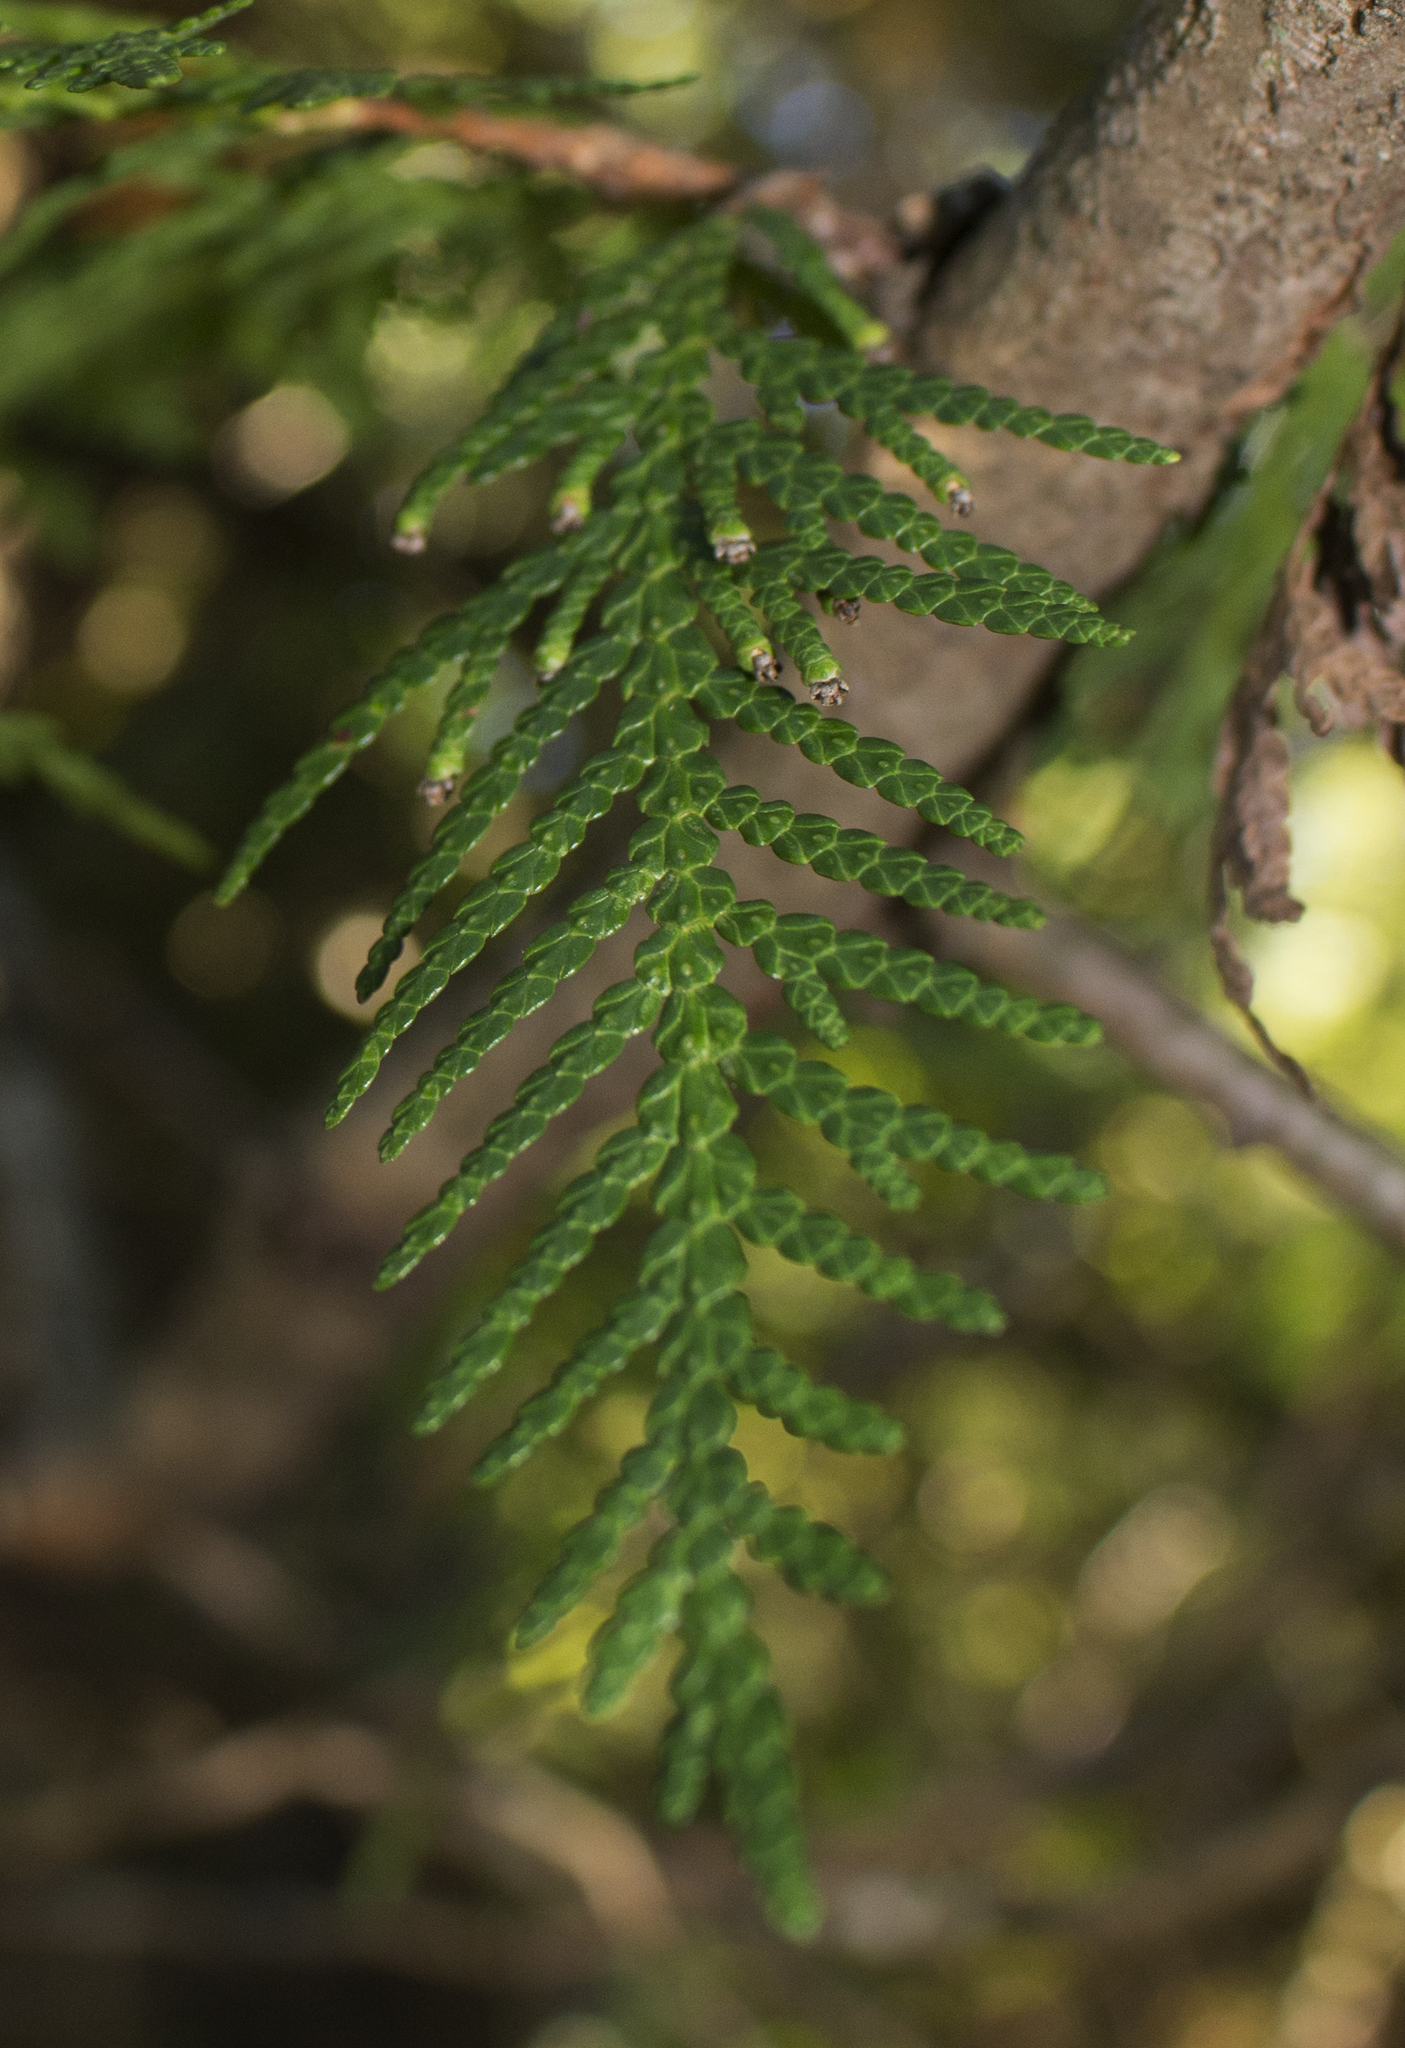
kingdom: Plantae
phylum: Tracheophyta
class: Pinopsida
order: Pinales
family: Cupressaceae
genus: Thuja
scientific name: Thuja occidentalis
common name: Northern white-cedar
